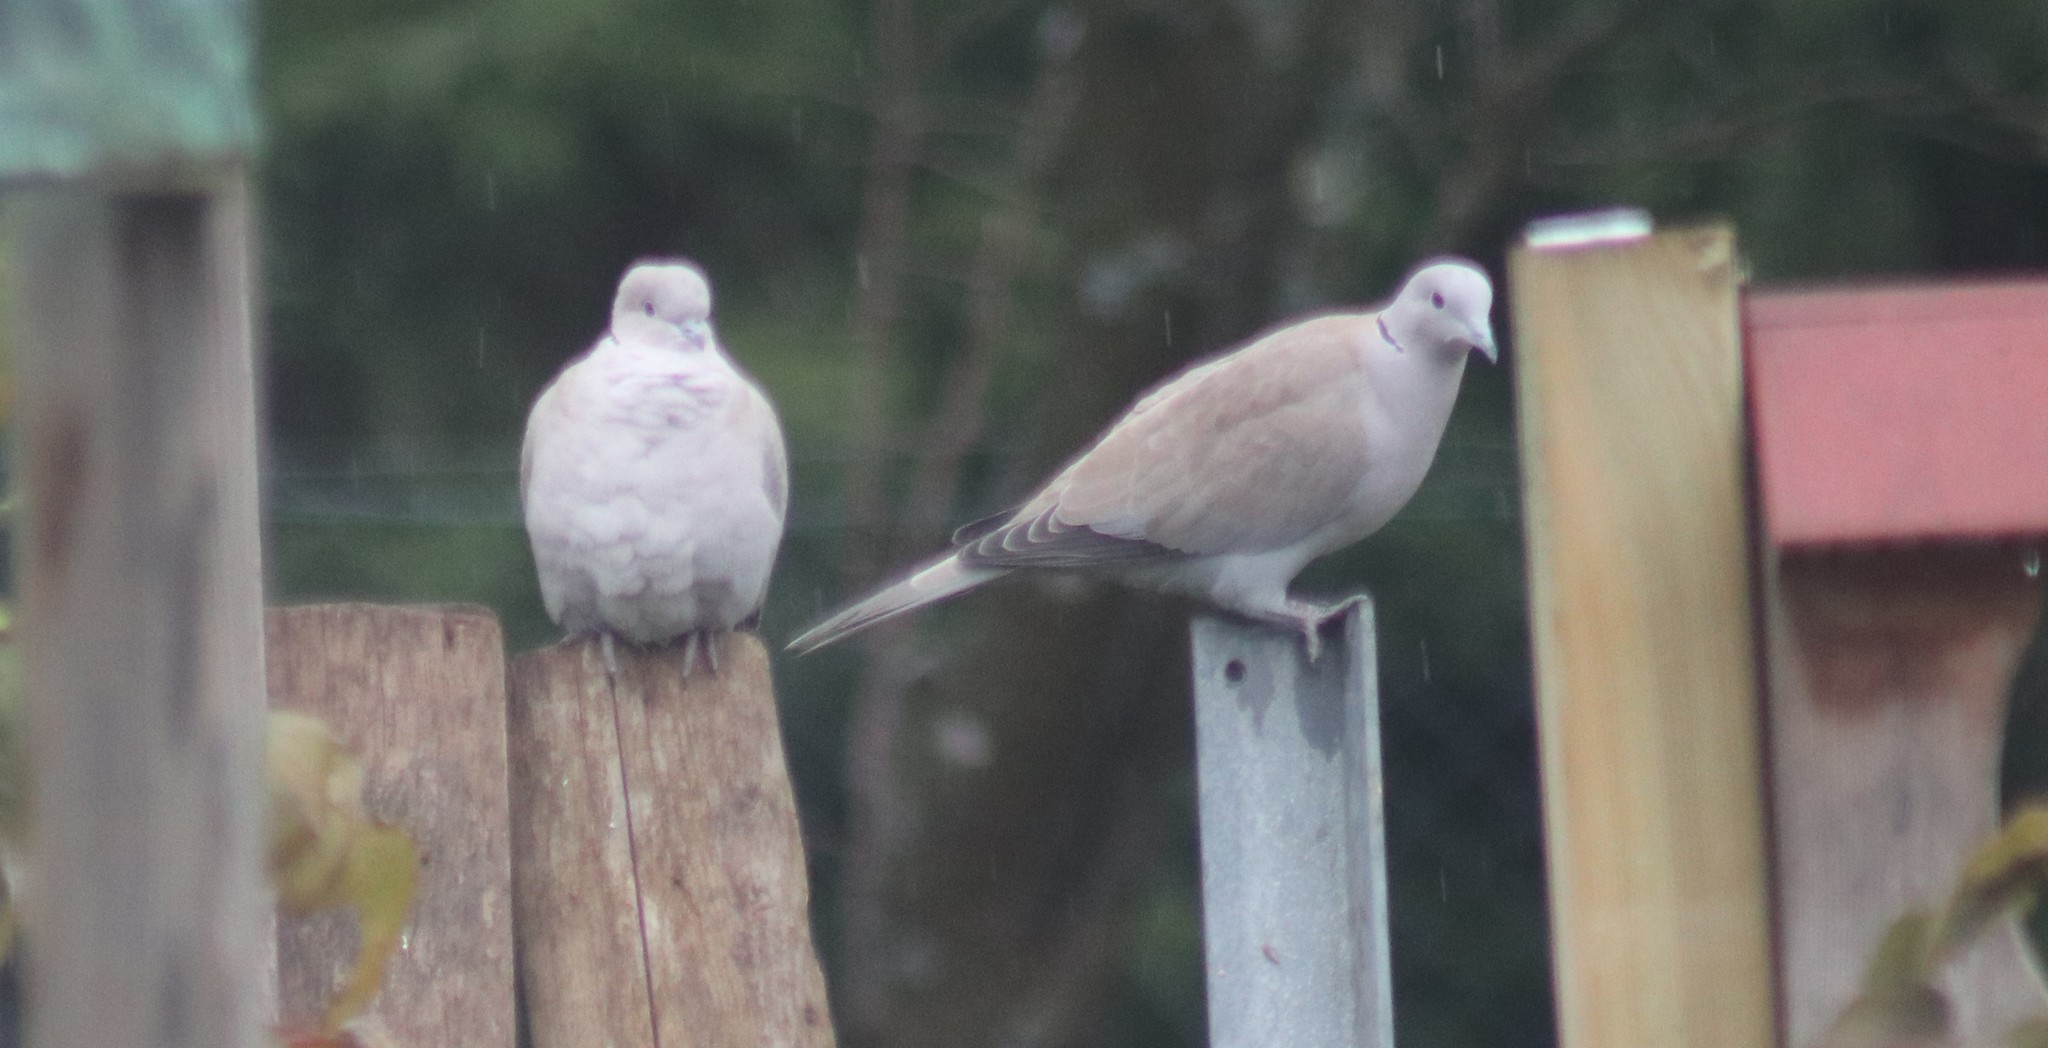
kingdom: Animalia
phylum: Chordata
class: Aves
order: Columbiformes
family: Columbidae
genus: Streptopelia
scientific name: Streptopelia decaocto
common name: Eurasian collared dove
